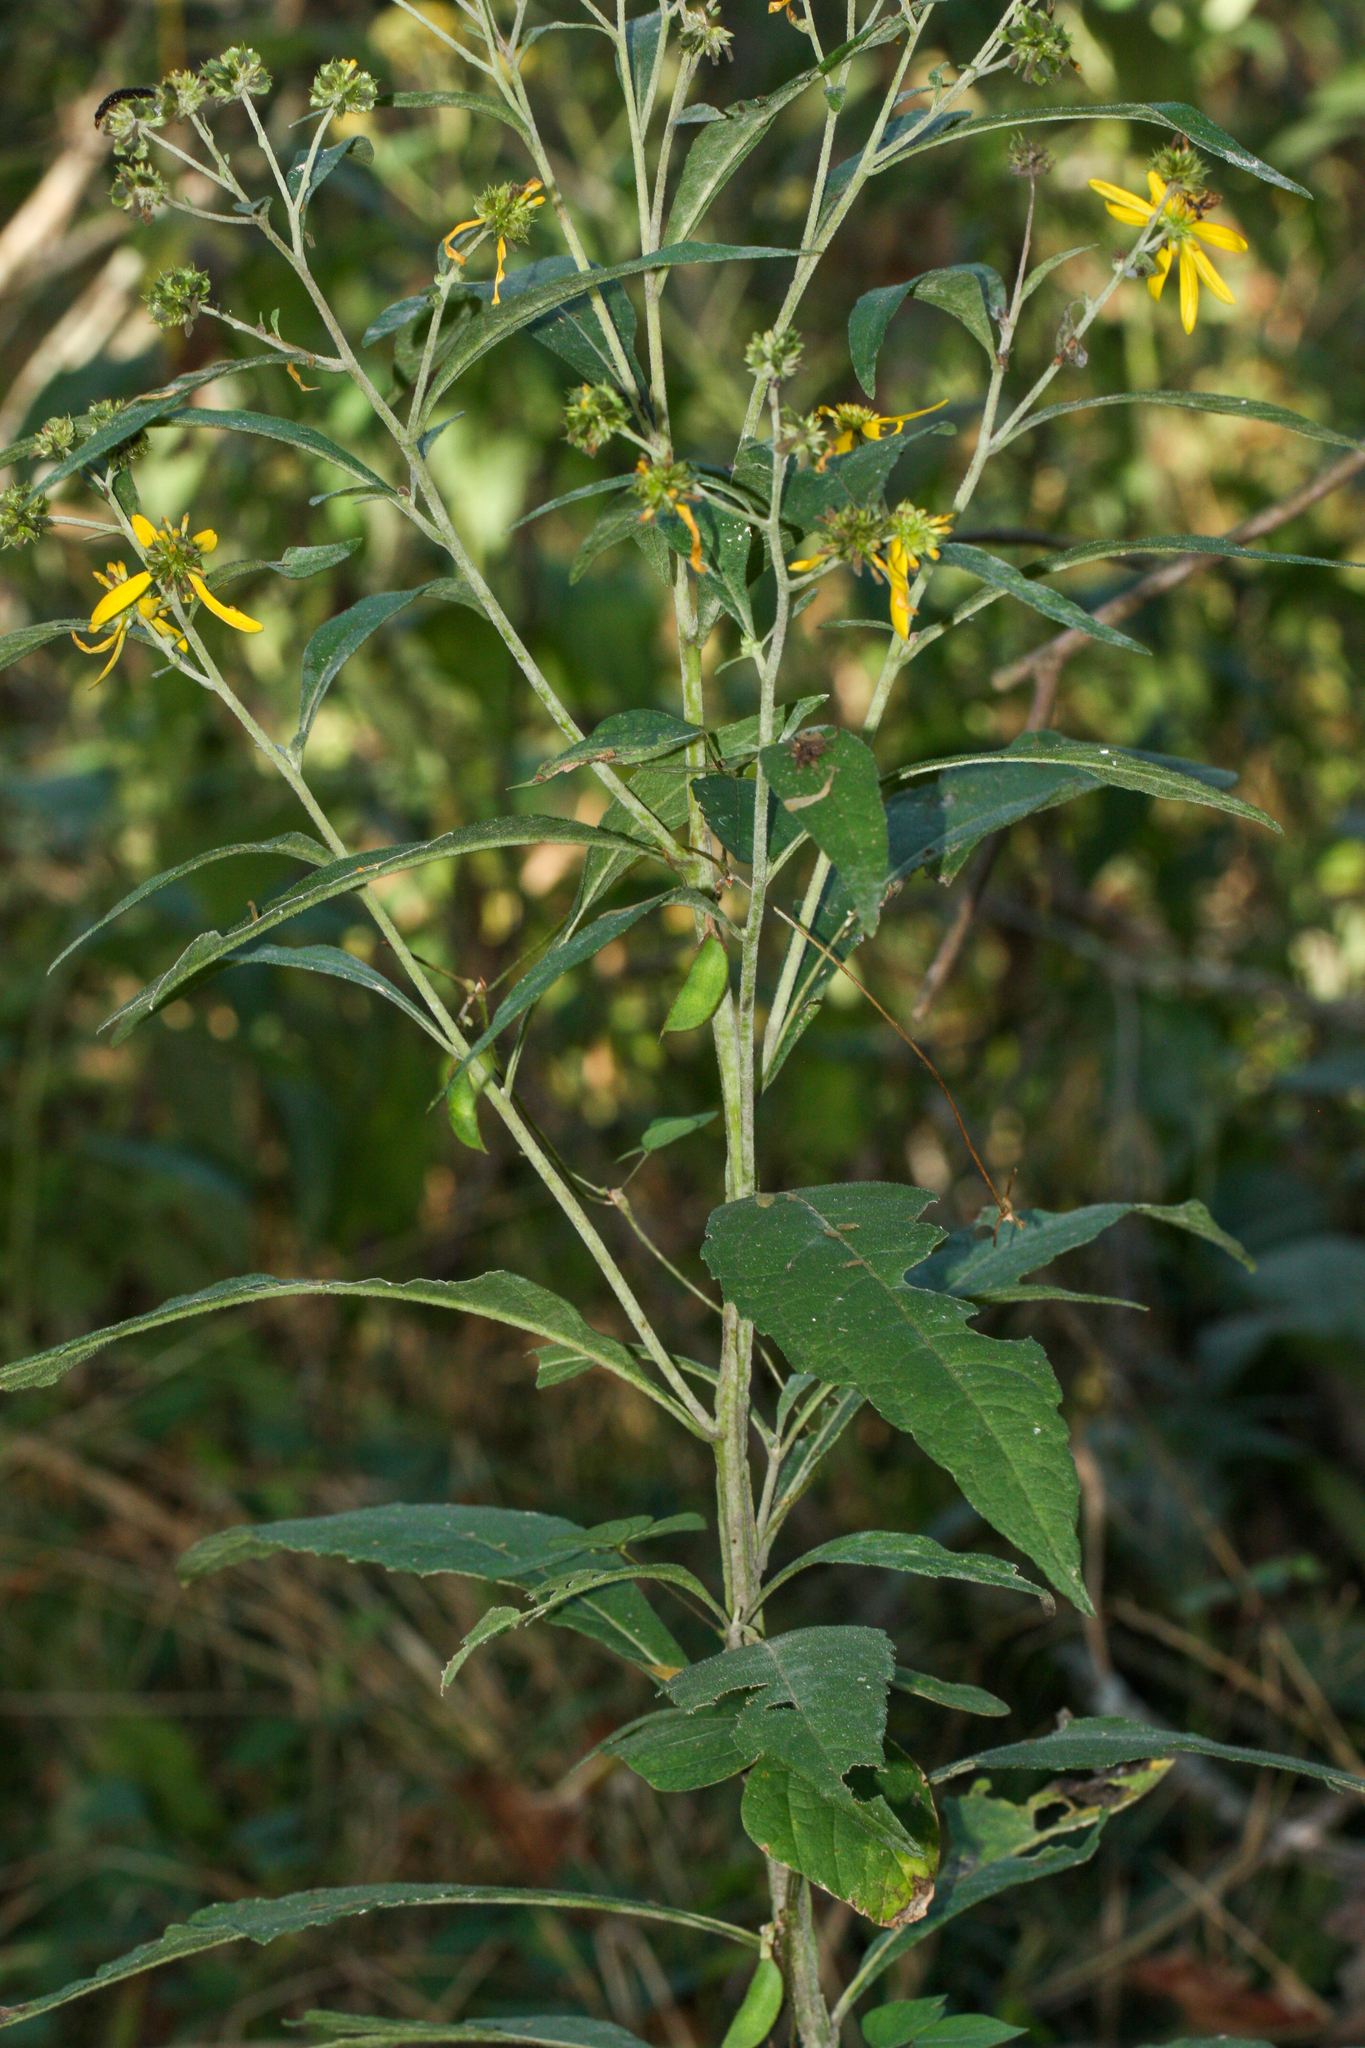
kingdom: Plantae
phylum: Tracheophyta
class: Magnoliopsida
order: Asterales
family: Asteraceae
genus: Verbesina
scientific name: Verbesina alternifolia
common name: Wingstem
